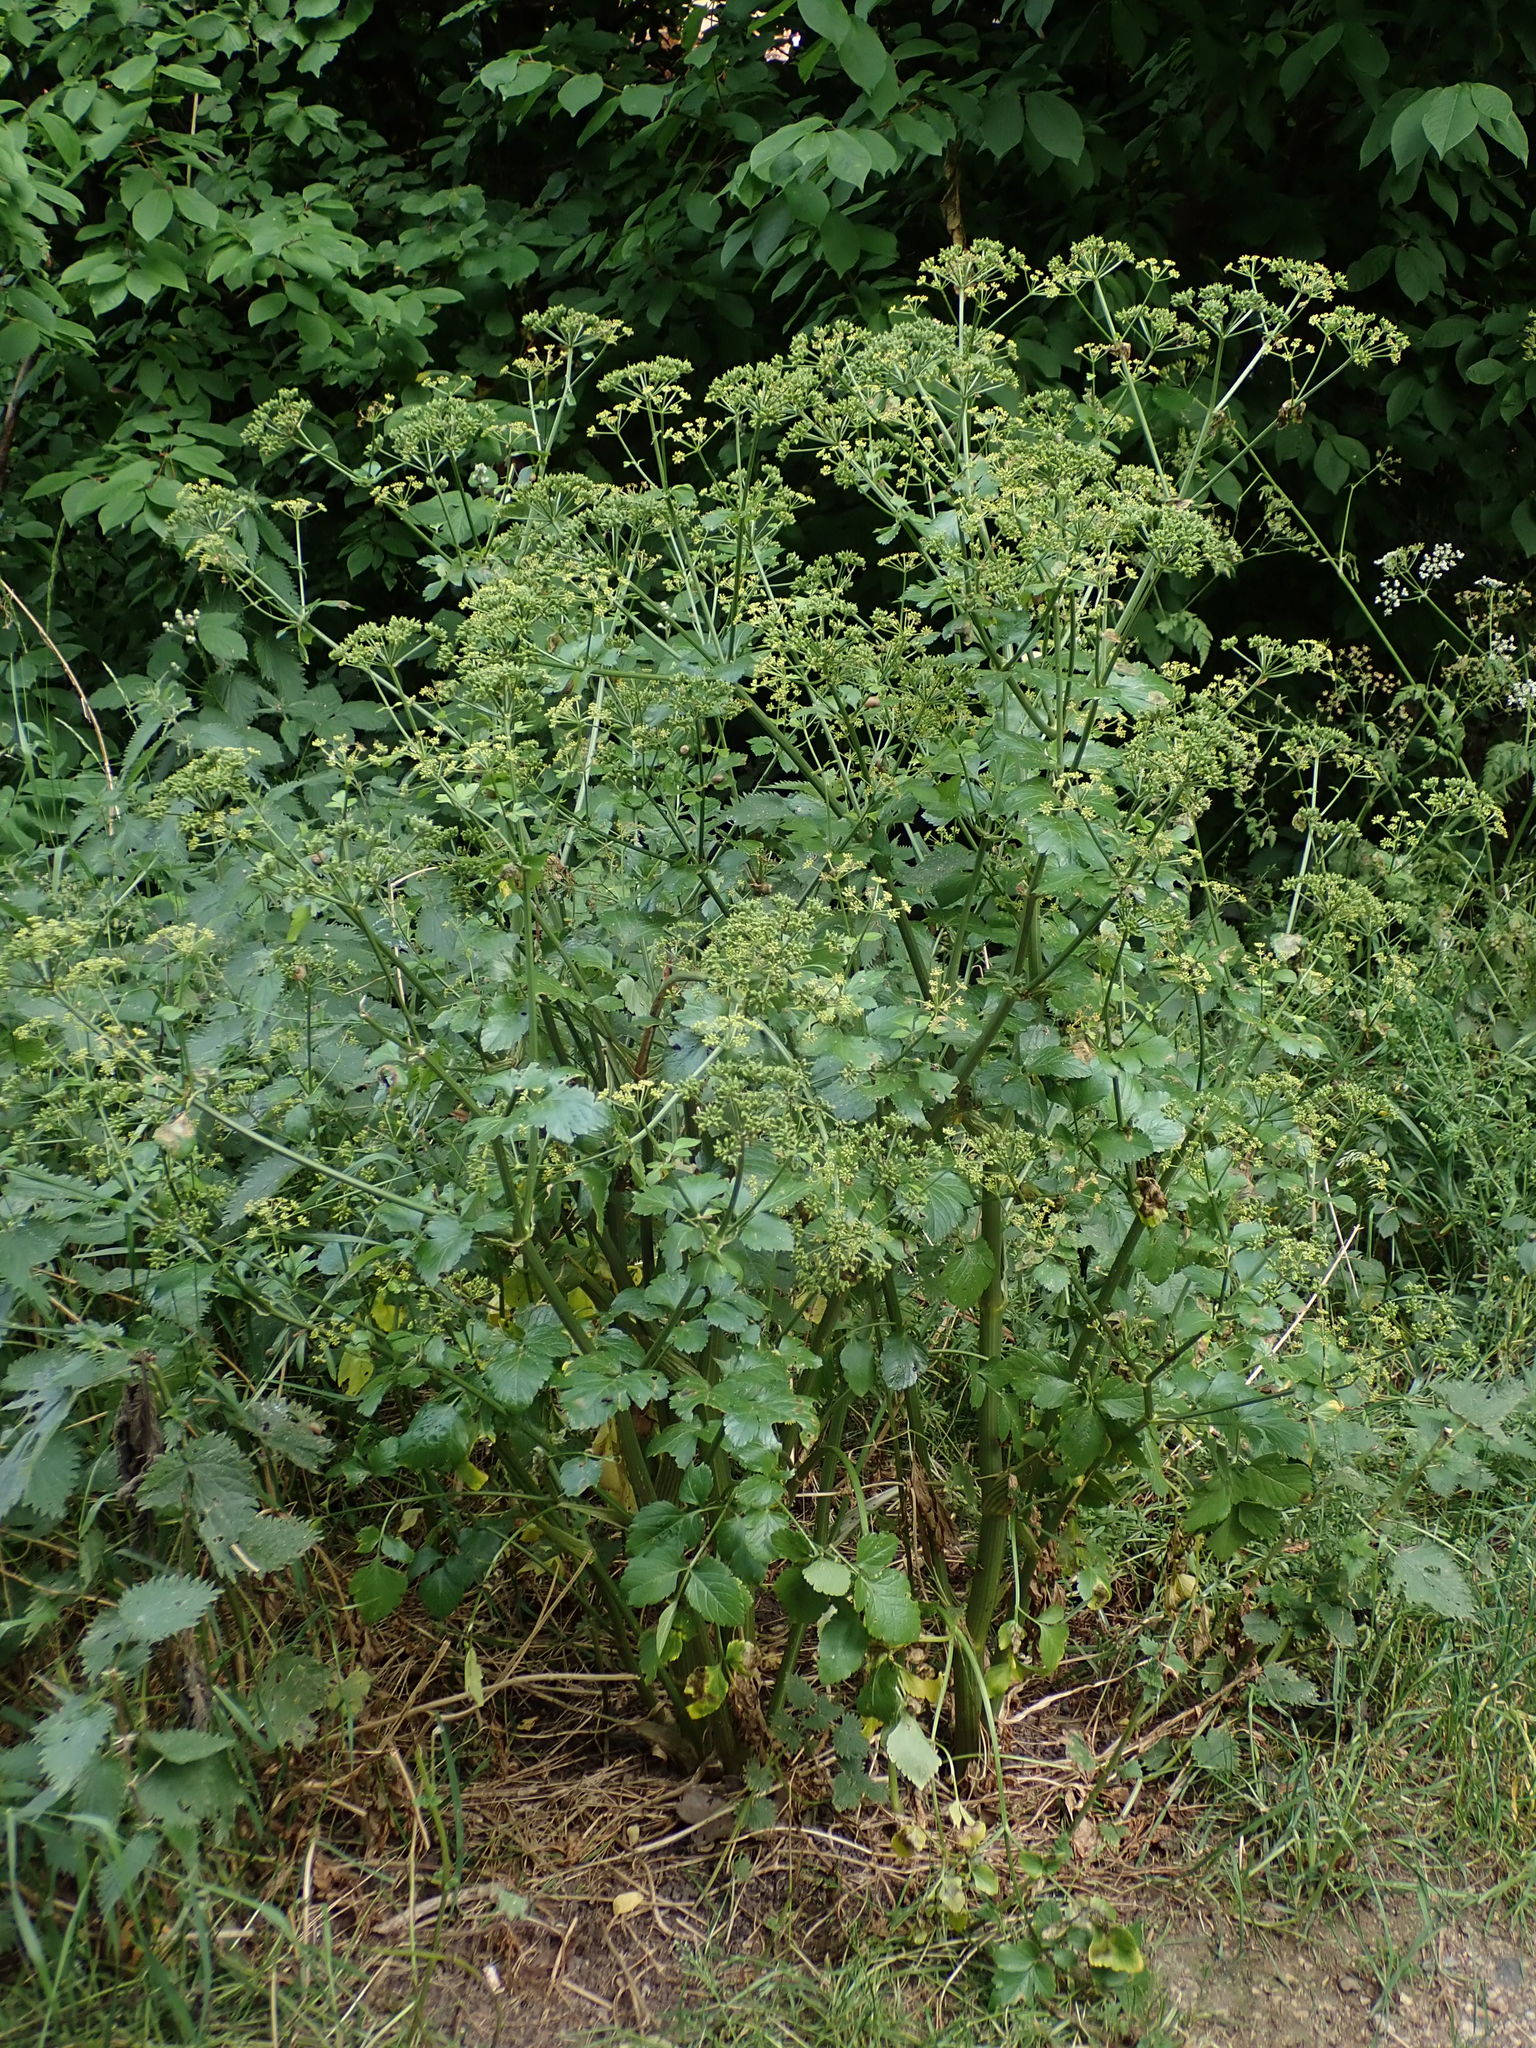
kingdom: Plantae
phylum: Tracheophyta
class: Magnoliopsida
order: Apiales
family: Apiaceae
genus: Smyrnium
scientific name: Smyrnium olusatrum
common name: Alexanders
